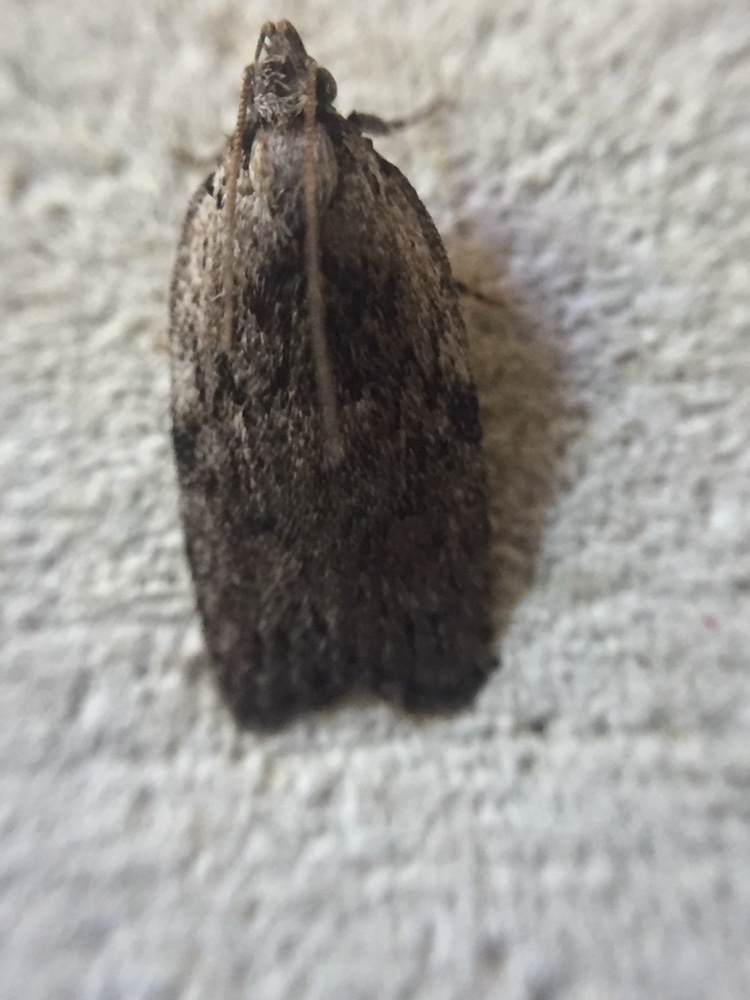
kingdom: Animalia
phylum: Arthropoda
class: Insecta
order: Lepidoptera
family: Depressariidae
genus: Phaeosaces
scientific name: Phaeosaces compsotypa
